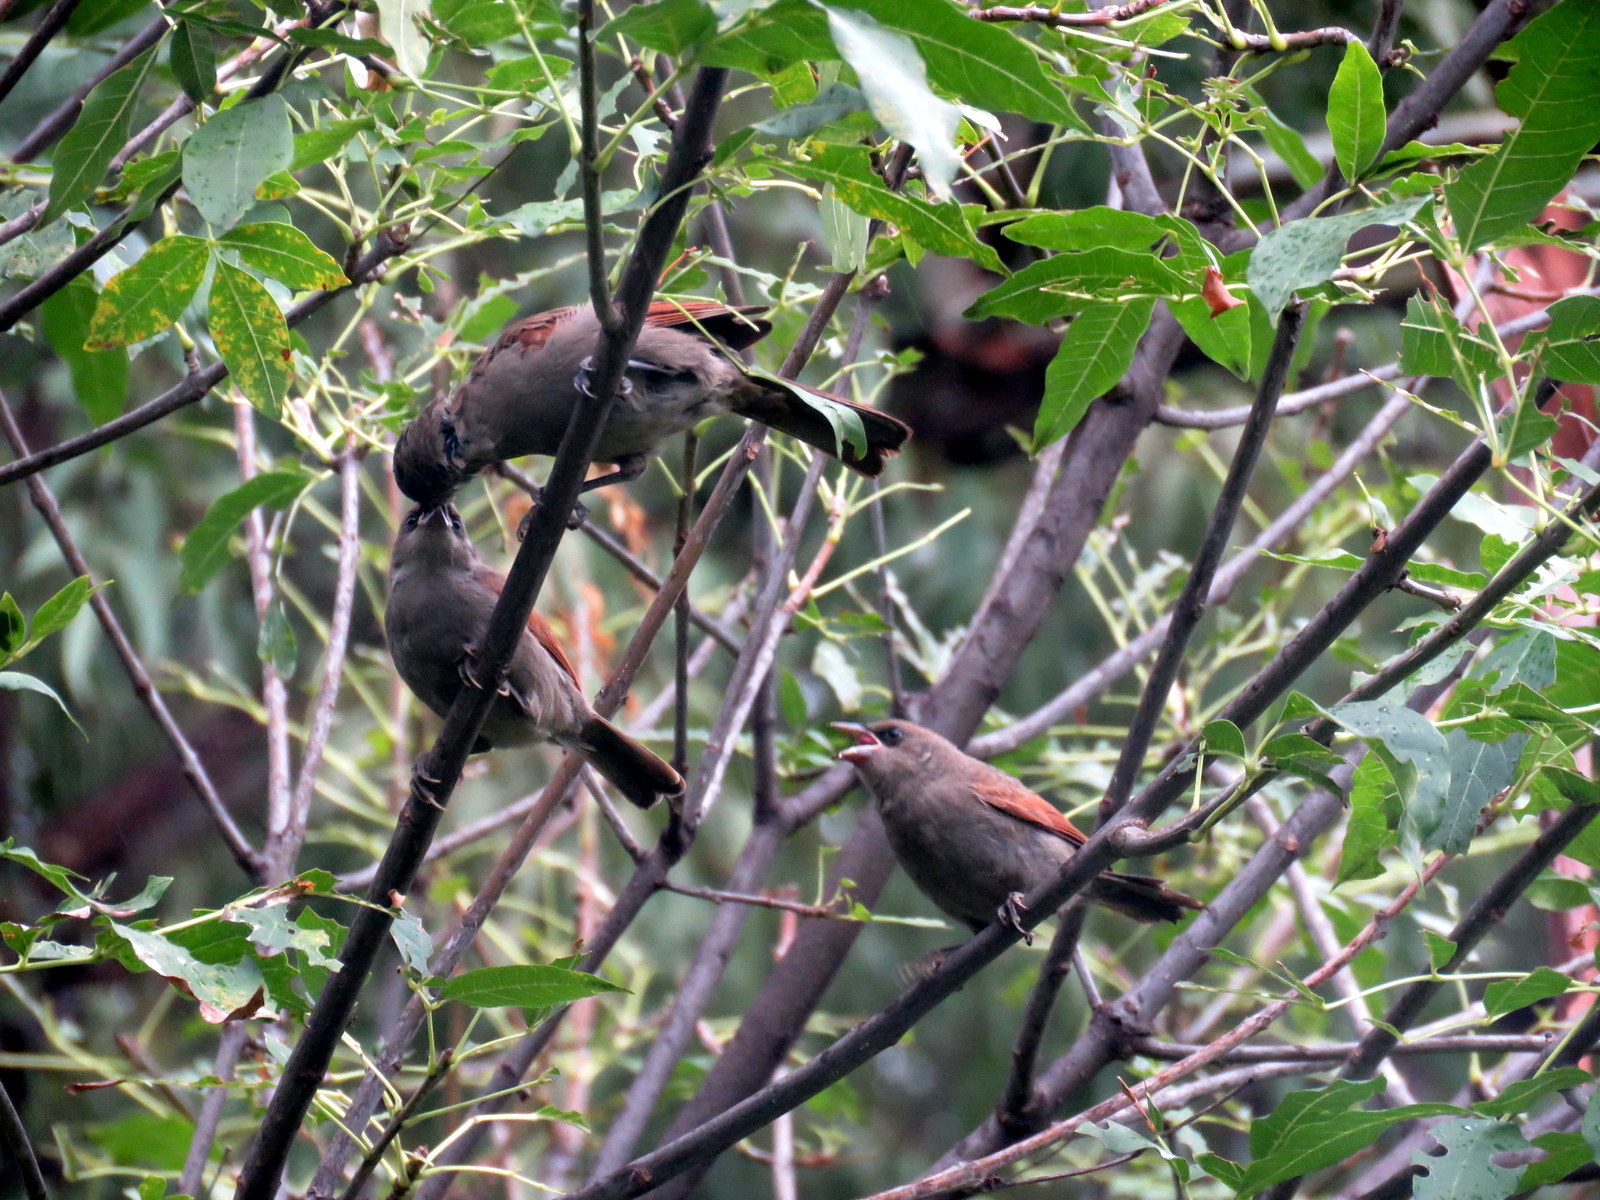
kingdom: Animalia
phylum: Chordata
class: Aves
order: Passeriformes
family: Icteridae
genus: Agelaioides
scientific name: Agelaioides badius
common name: Baywing
